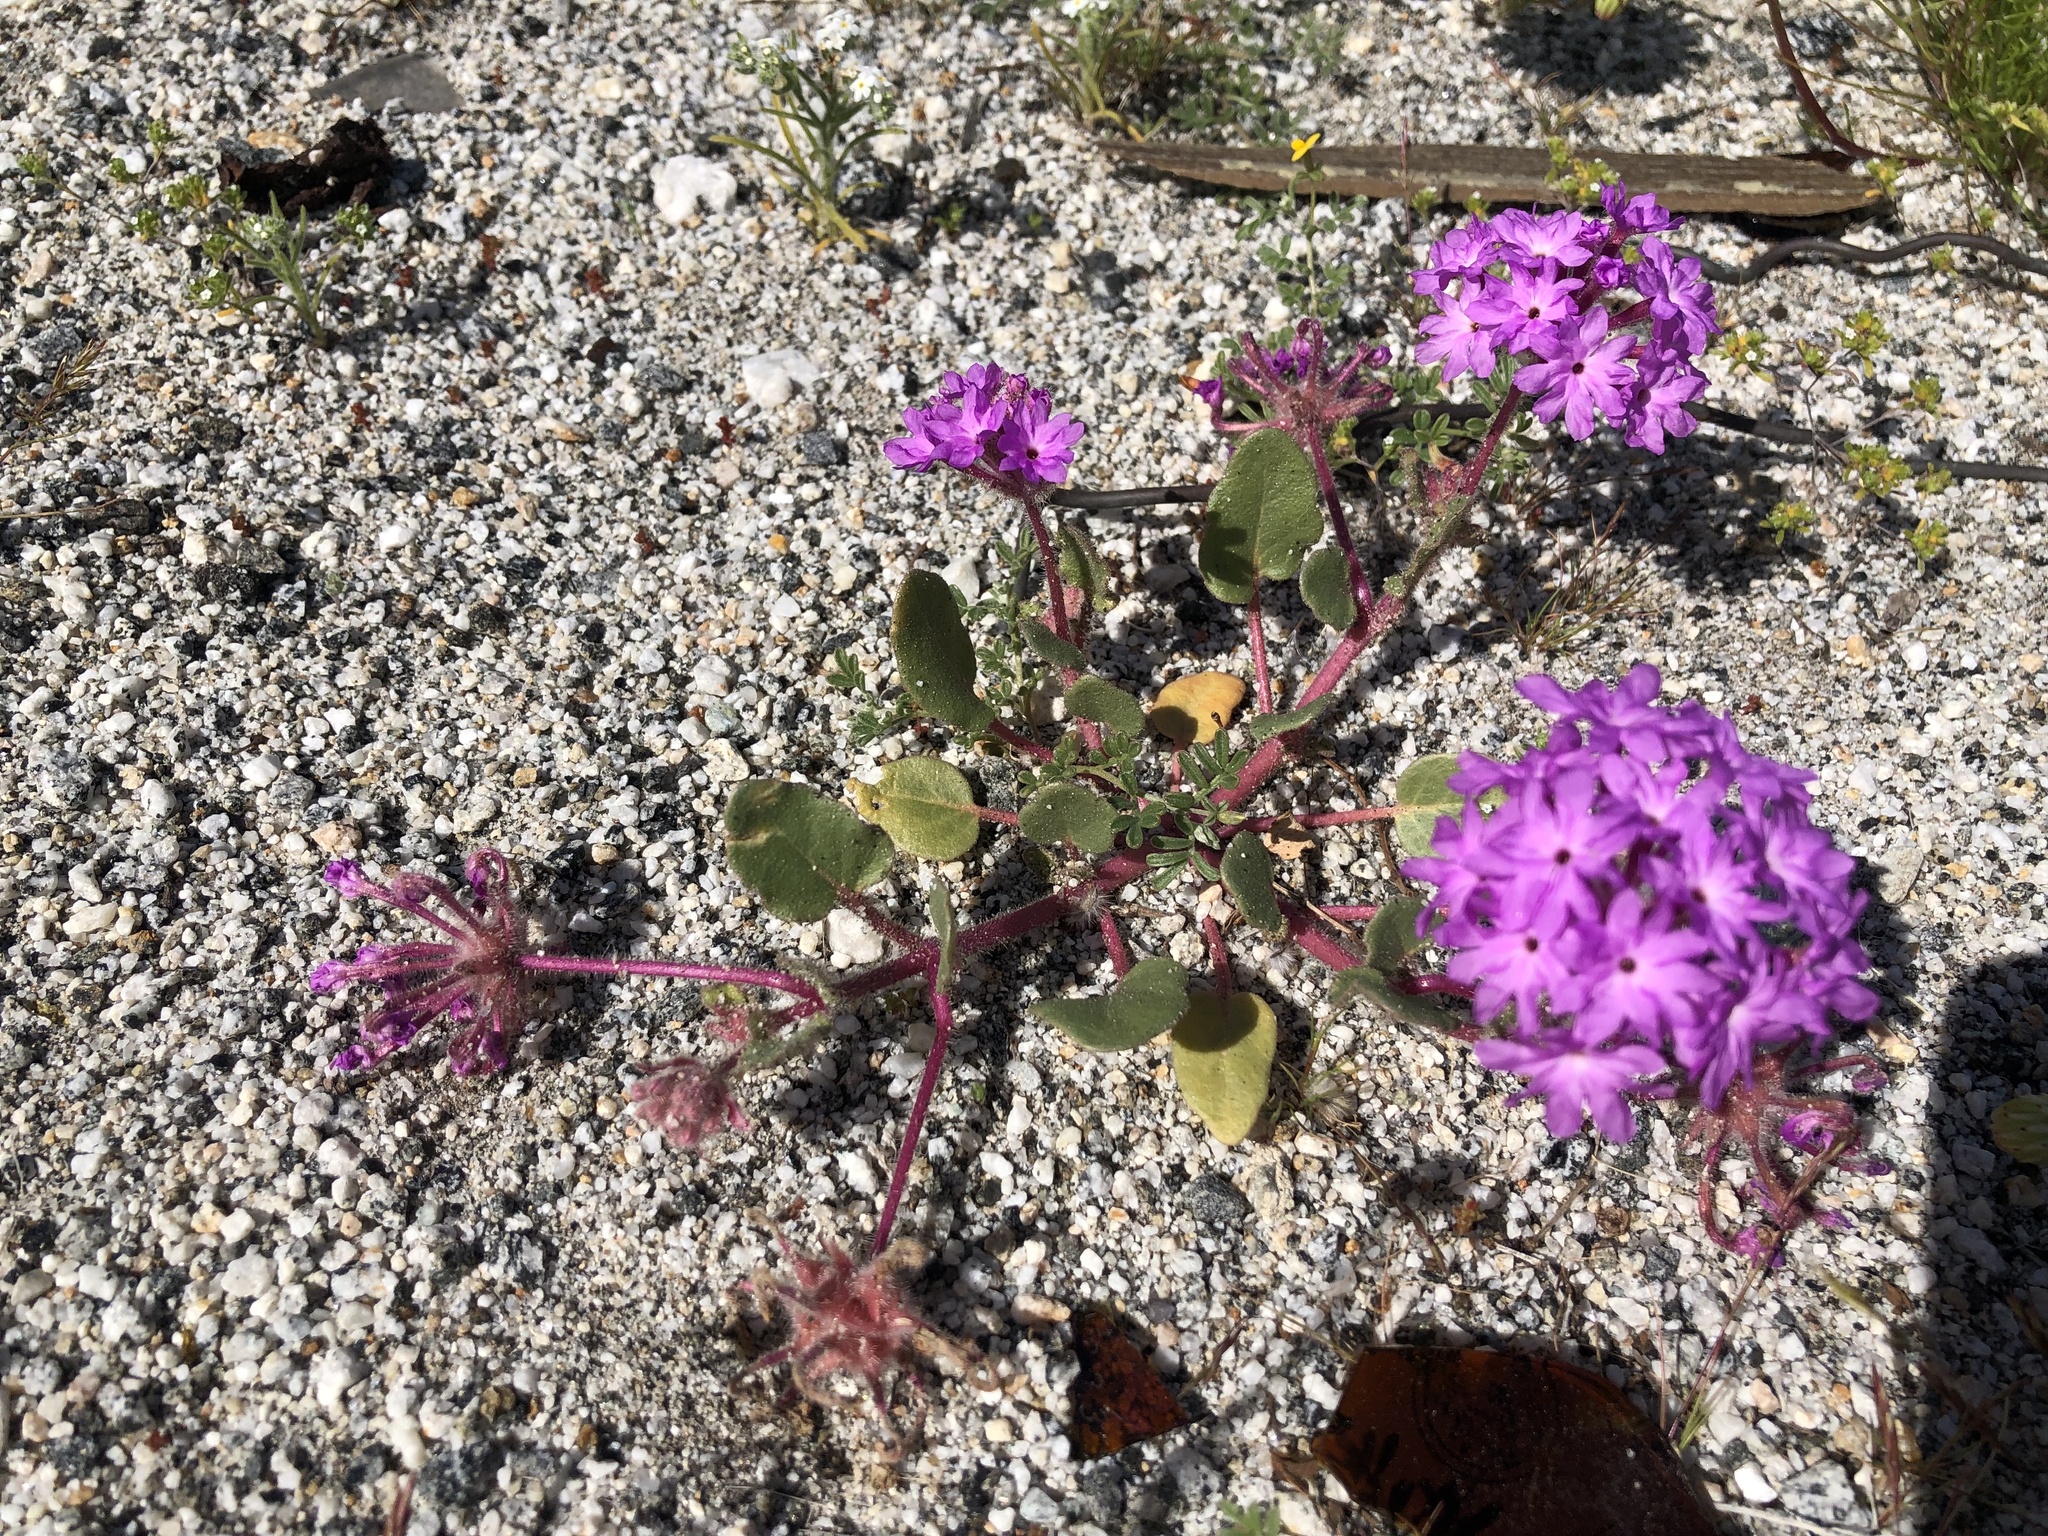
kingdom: Plantae
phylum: Tracheophyta
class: Magnoliopsida
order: Caryophyllales
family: Nyctaginaceae
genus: Abronia
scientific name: Abronia villosa
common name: Desert sand-verbena
